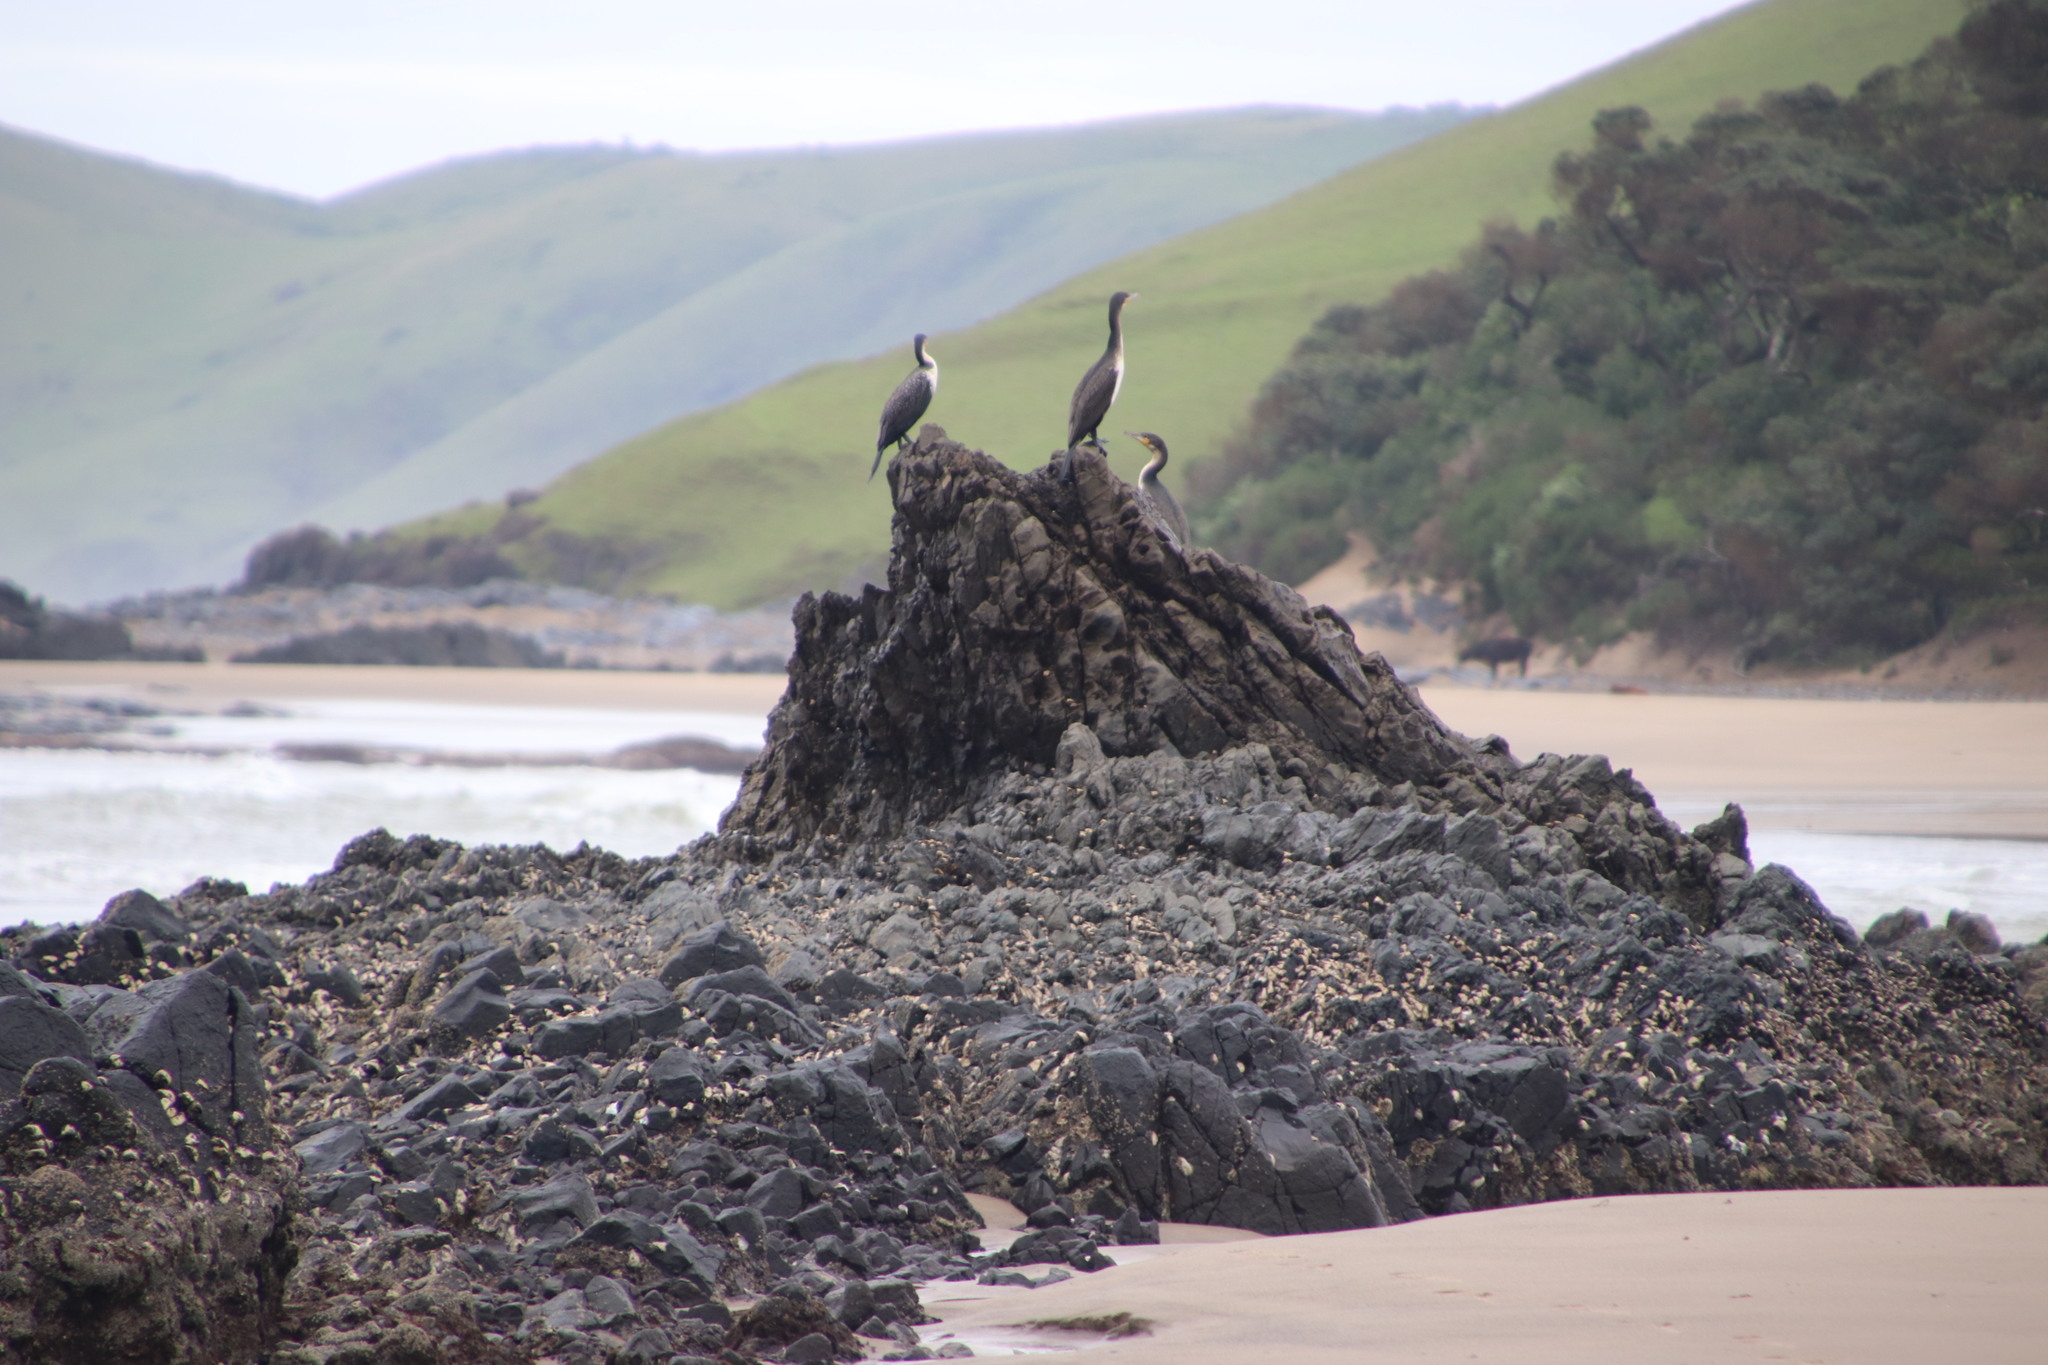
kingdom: Animalia
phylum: Chordata
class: Aves
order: Suliformes
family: Phalacrocoracidae
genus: Phalacrocorax
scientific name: Phalacrocorax carbo
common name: Great cormorant
